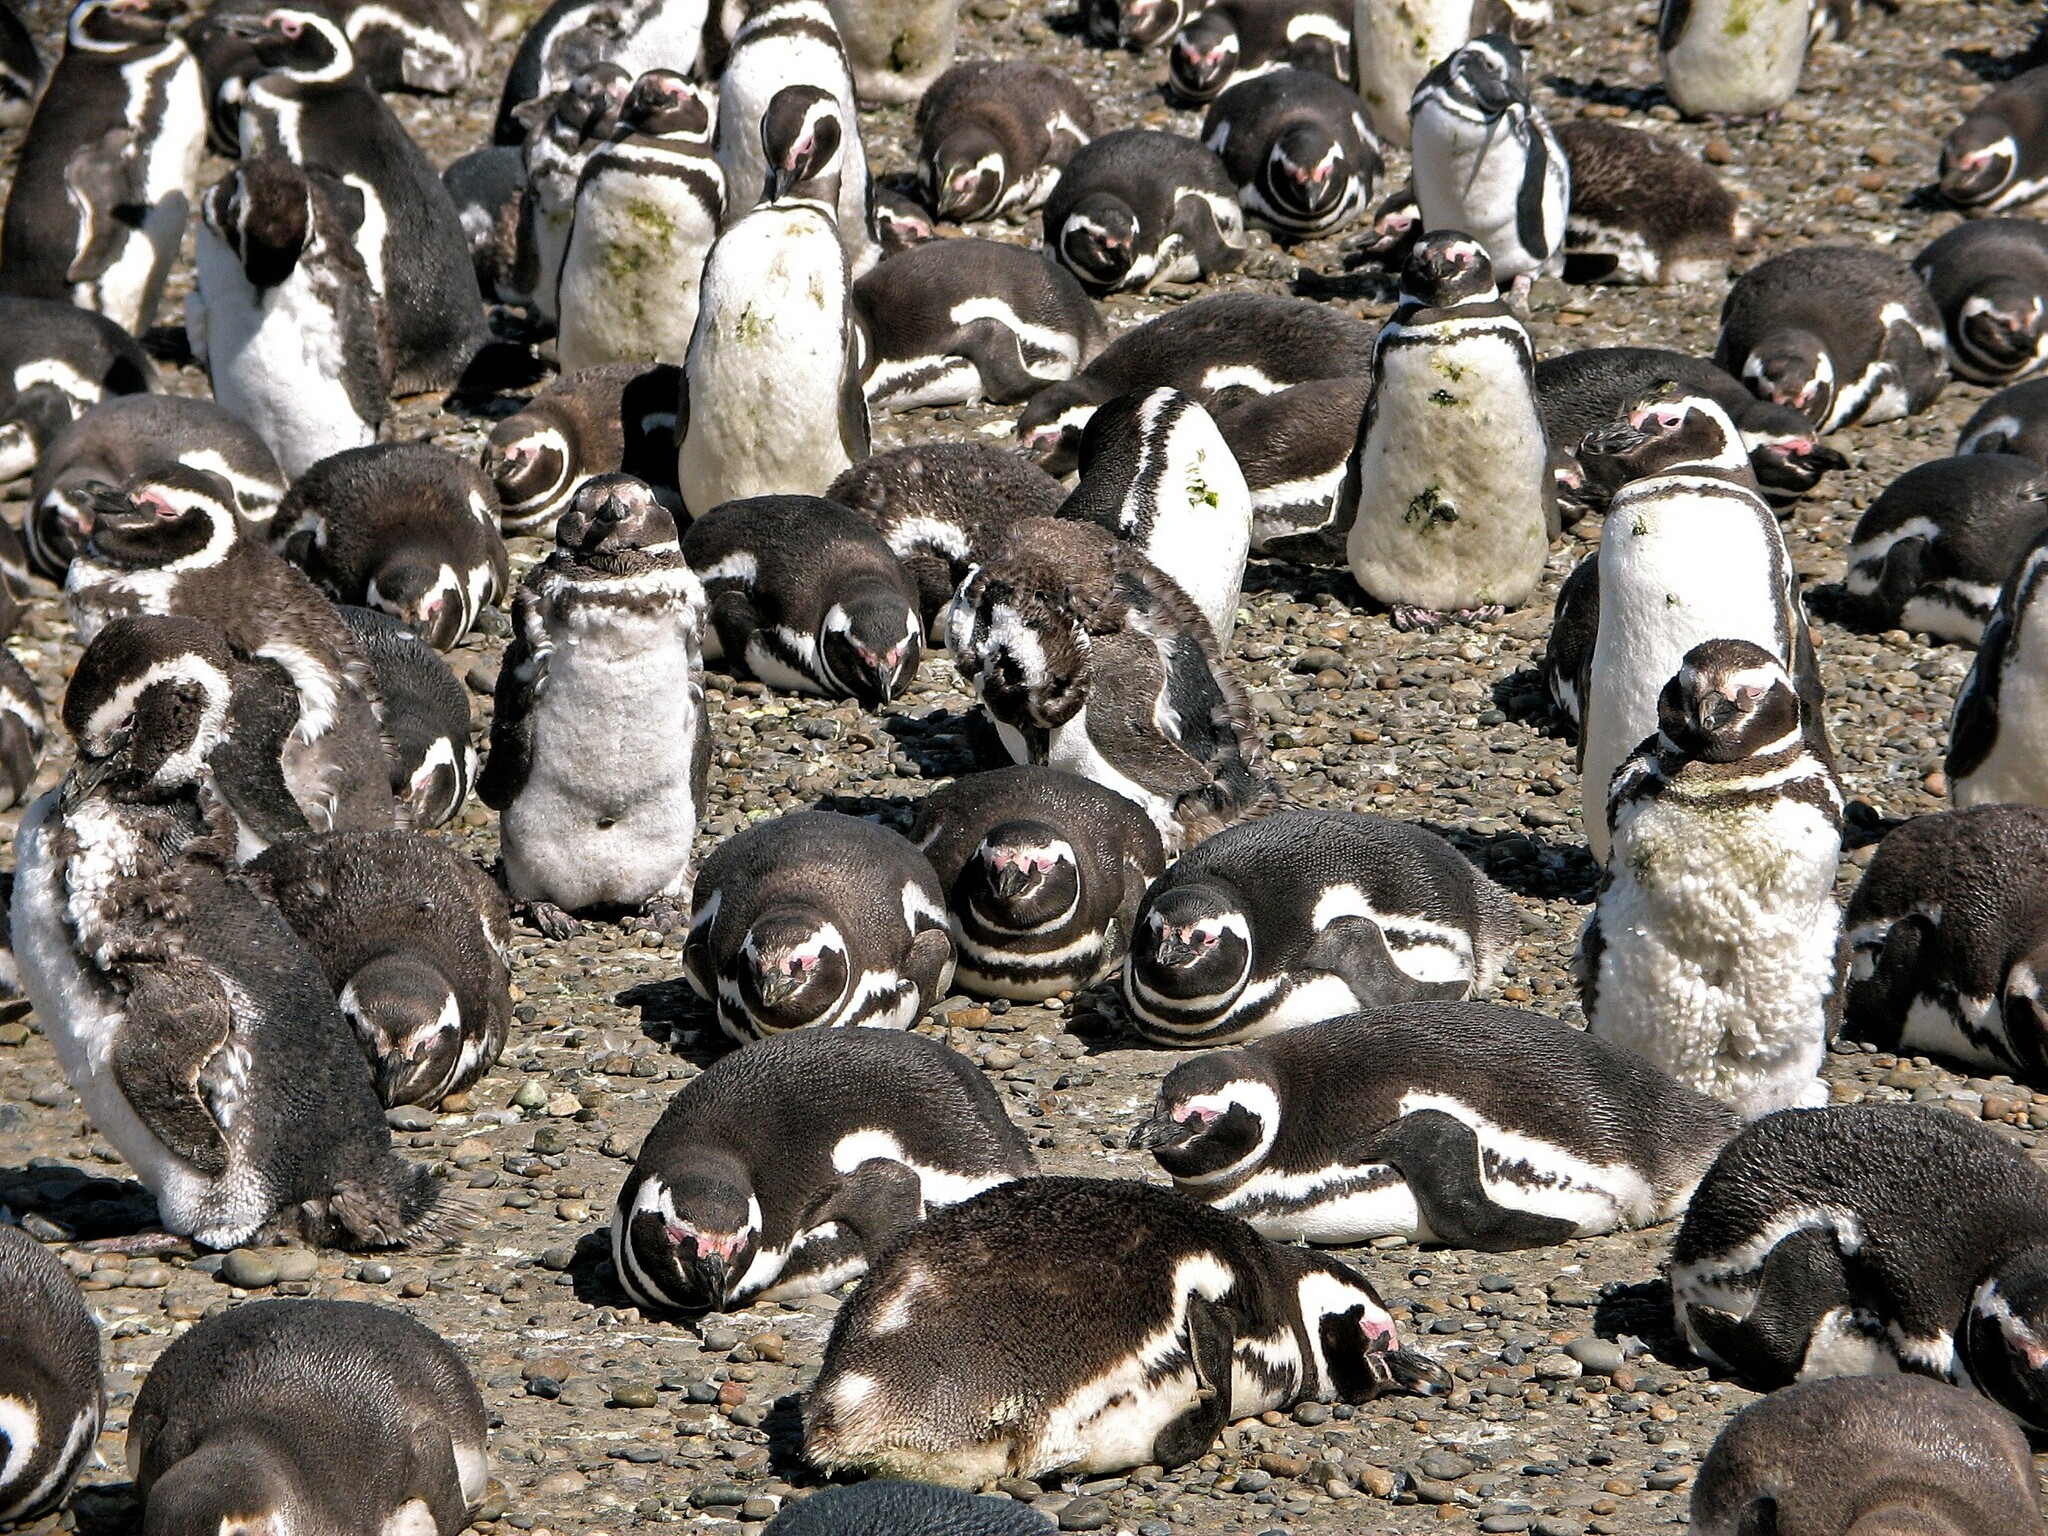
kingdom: Animalia
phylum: Chordata
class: Aves
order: Sphenisciformes
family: Spheniscidae
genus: Spheniscus
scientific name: Spheniscus magellanicus
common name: Magellanic penguin
